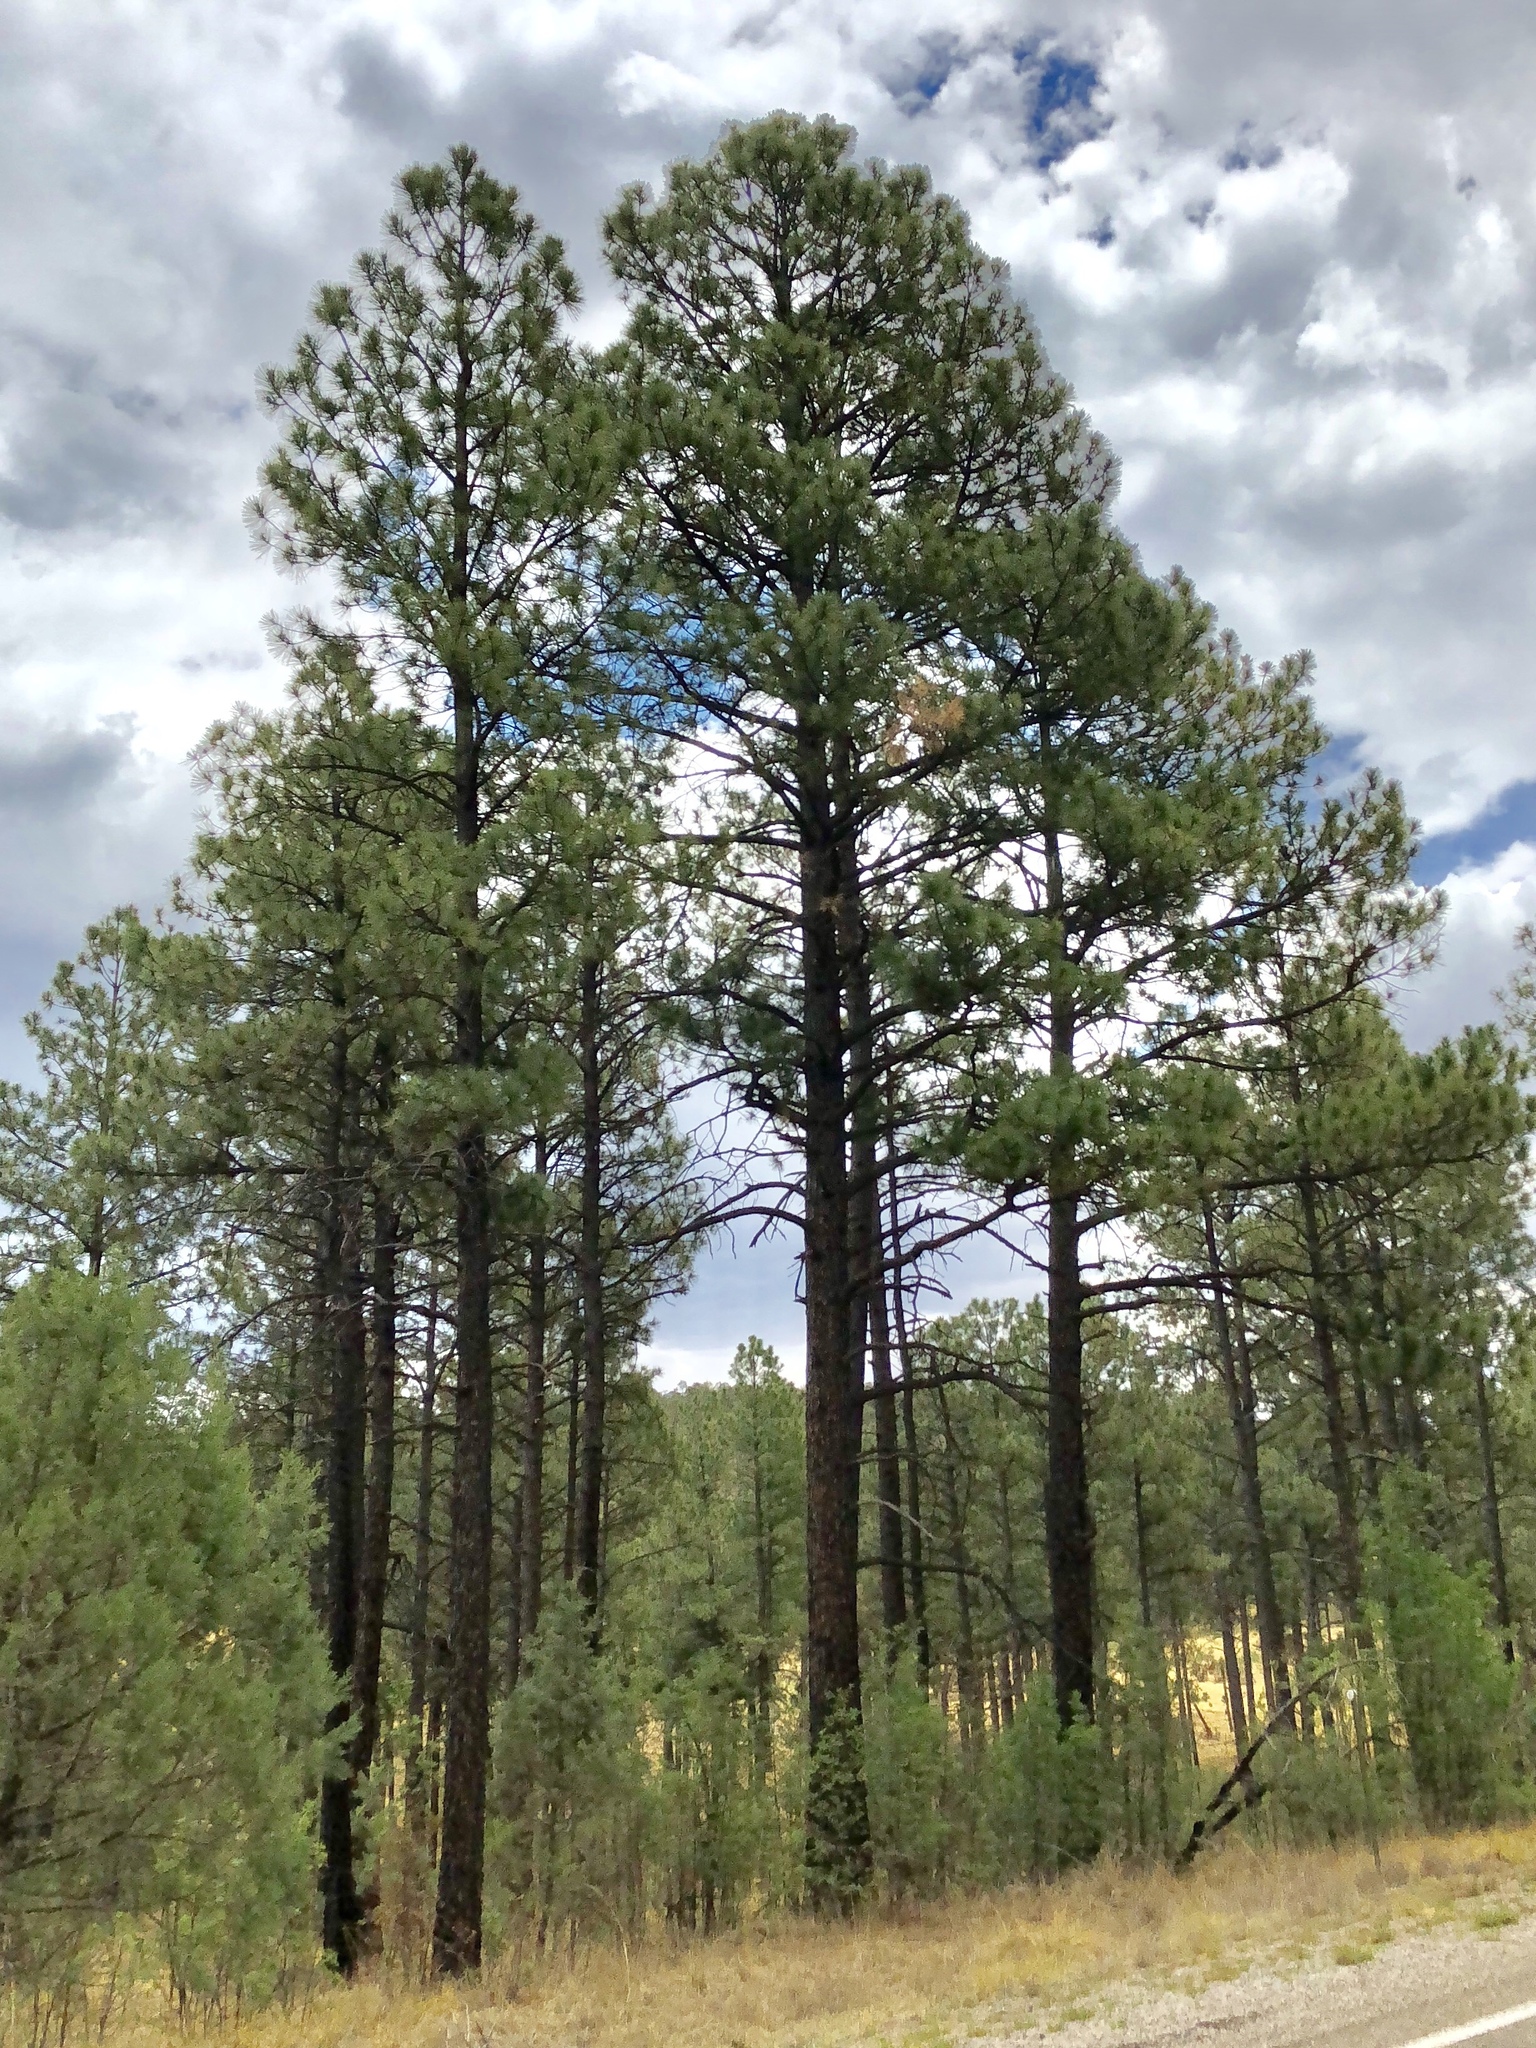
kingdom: Plantae
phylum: Tracheophyta
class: Pinopsida
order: Pinales
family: Pinaceae
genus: Pinus
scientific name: Pinus ponderosa
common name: Western yellow-pine
